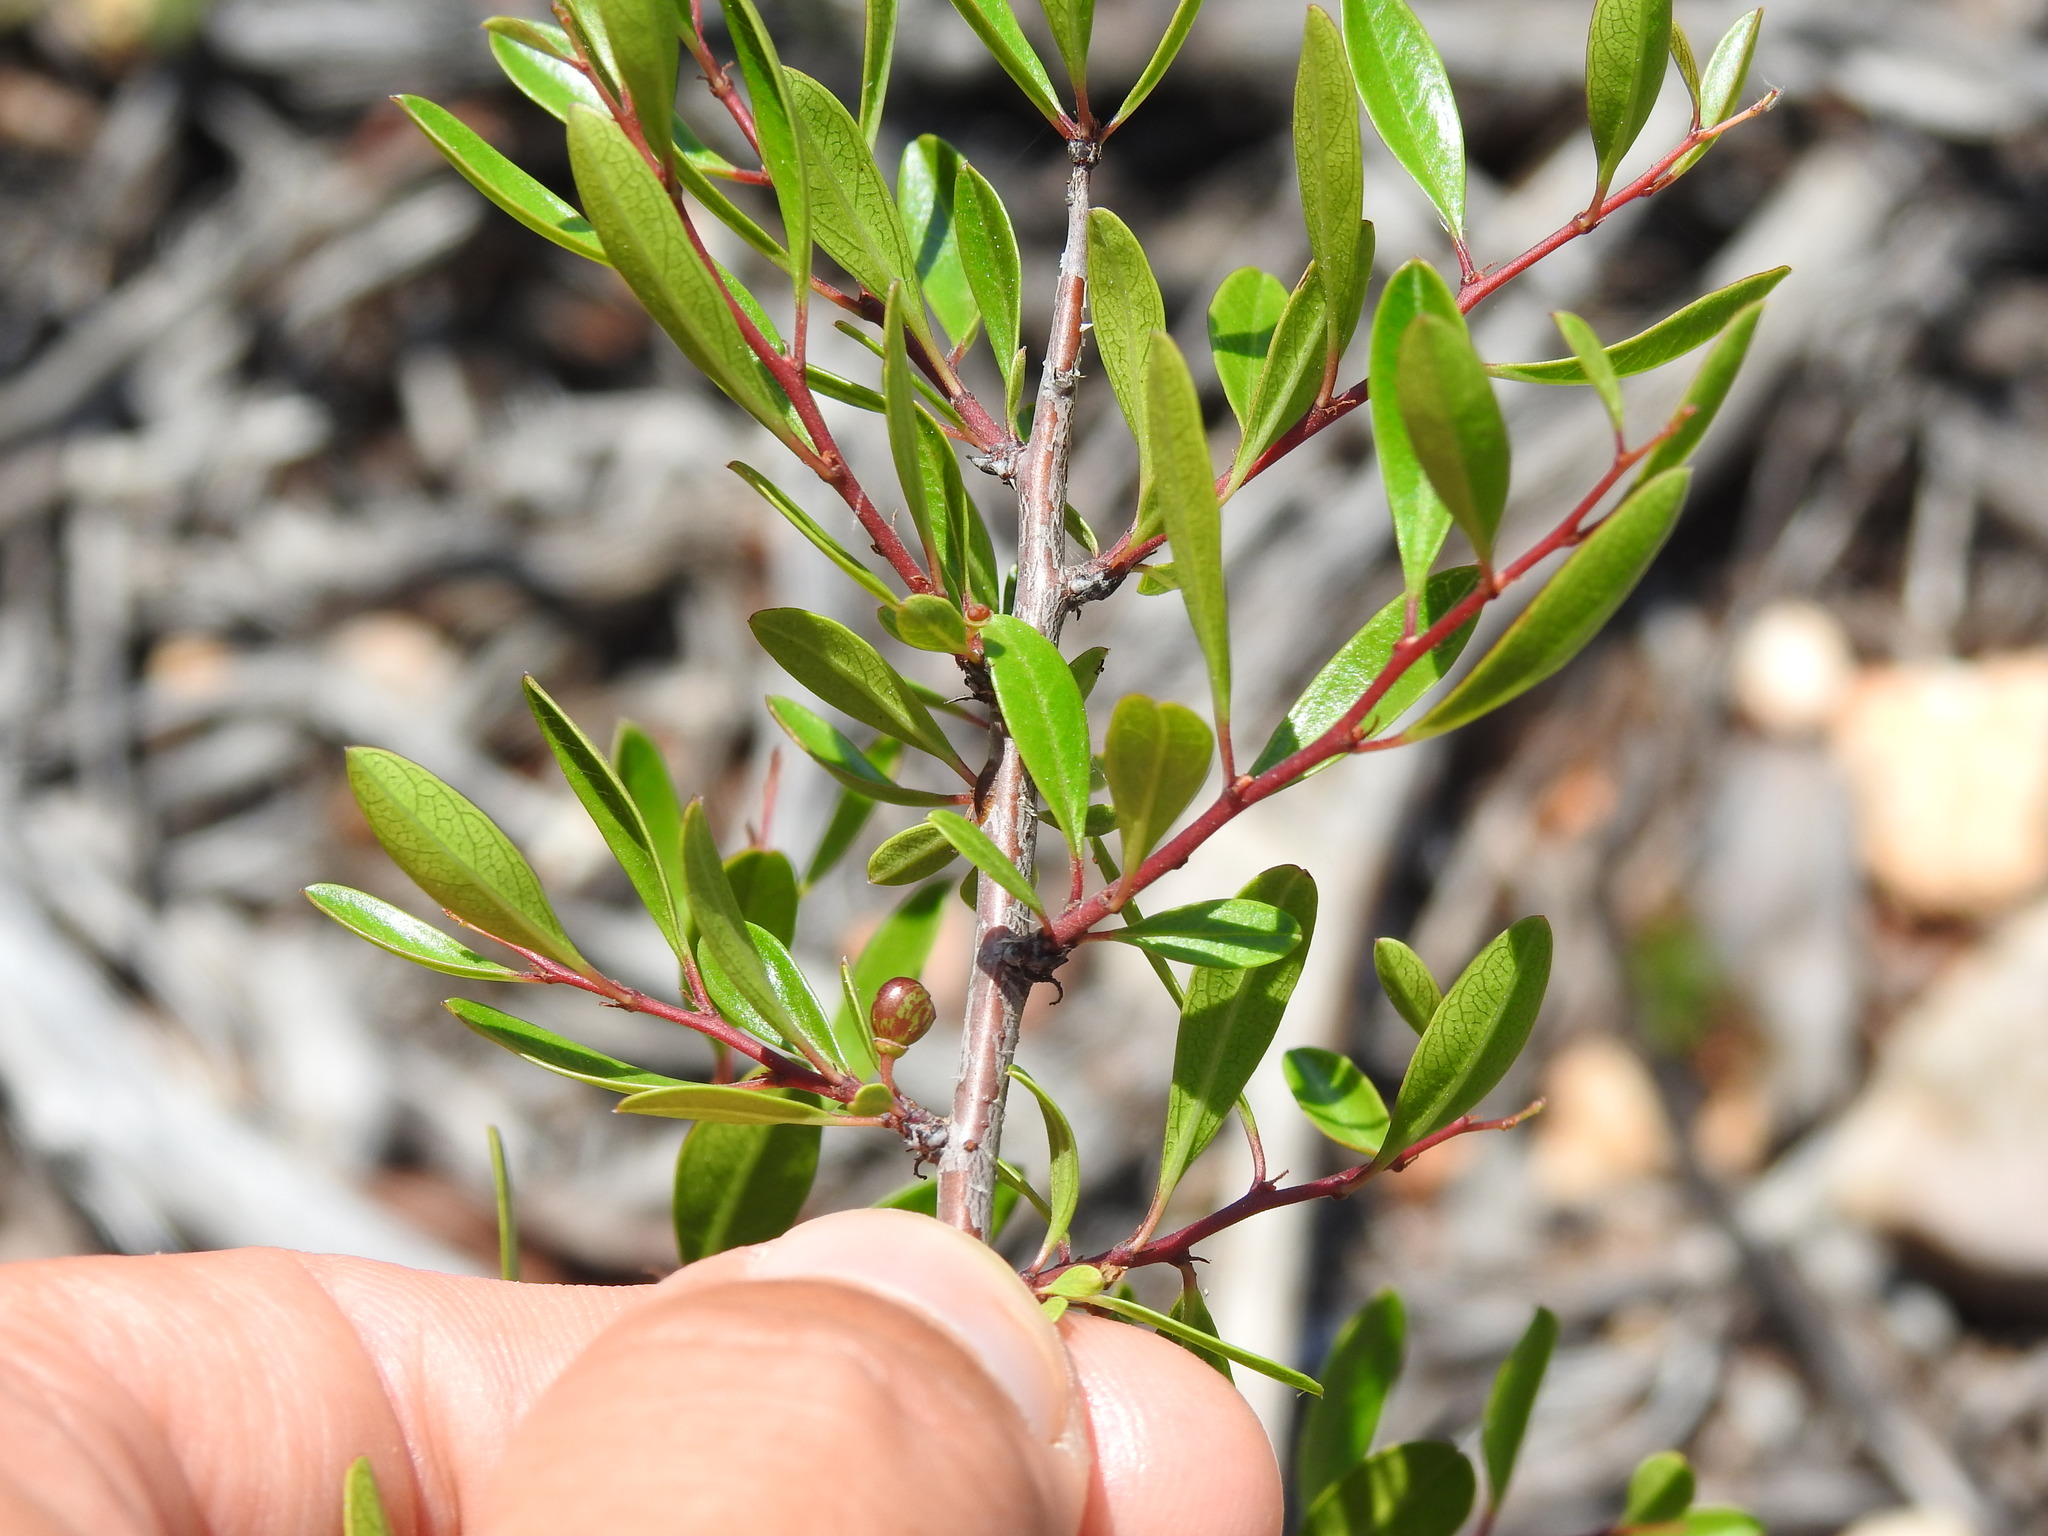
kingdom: Plantae
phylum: Tracheophyta
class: Magnoliopsida
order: Rosales
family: Rhamnaceae
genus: Rhamnus
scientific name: Rhamnus oleoides
